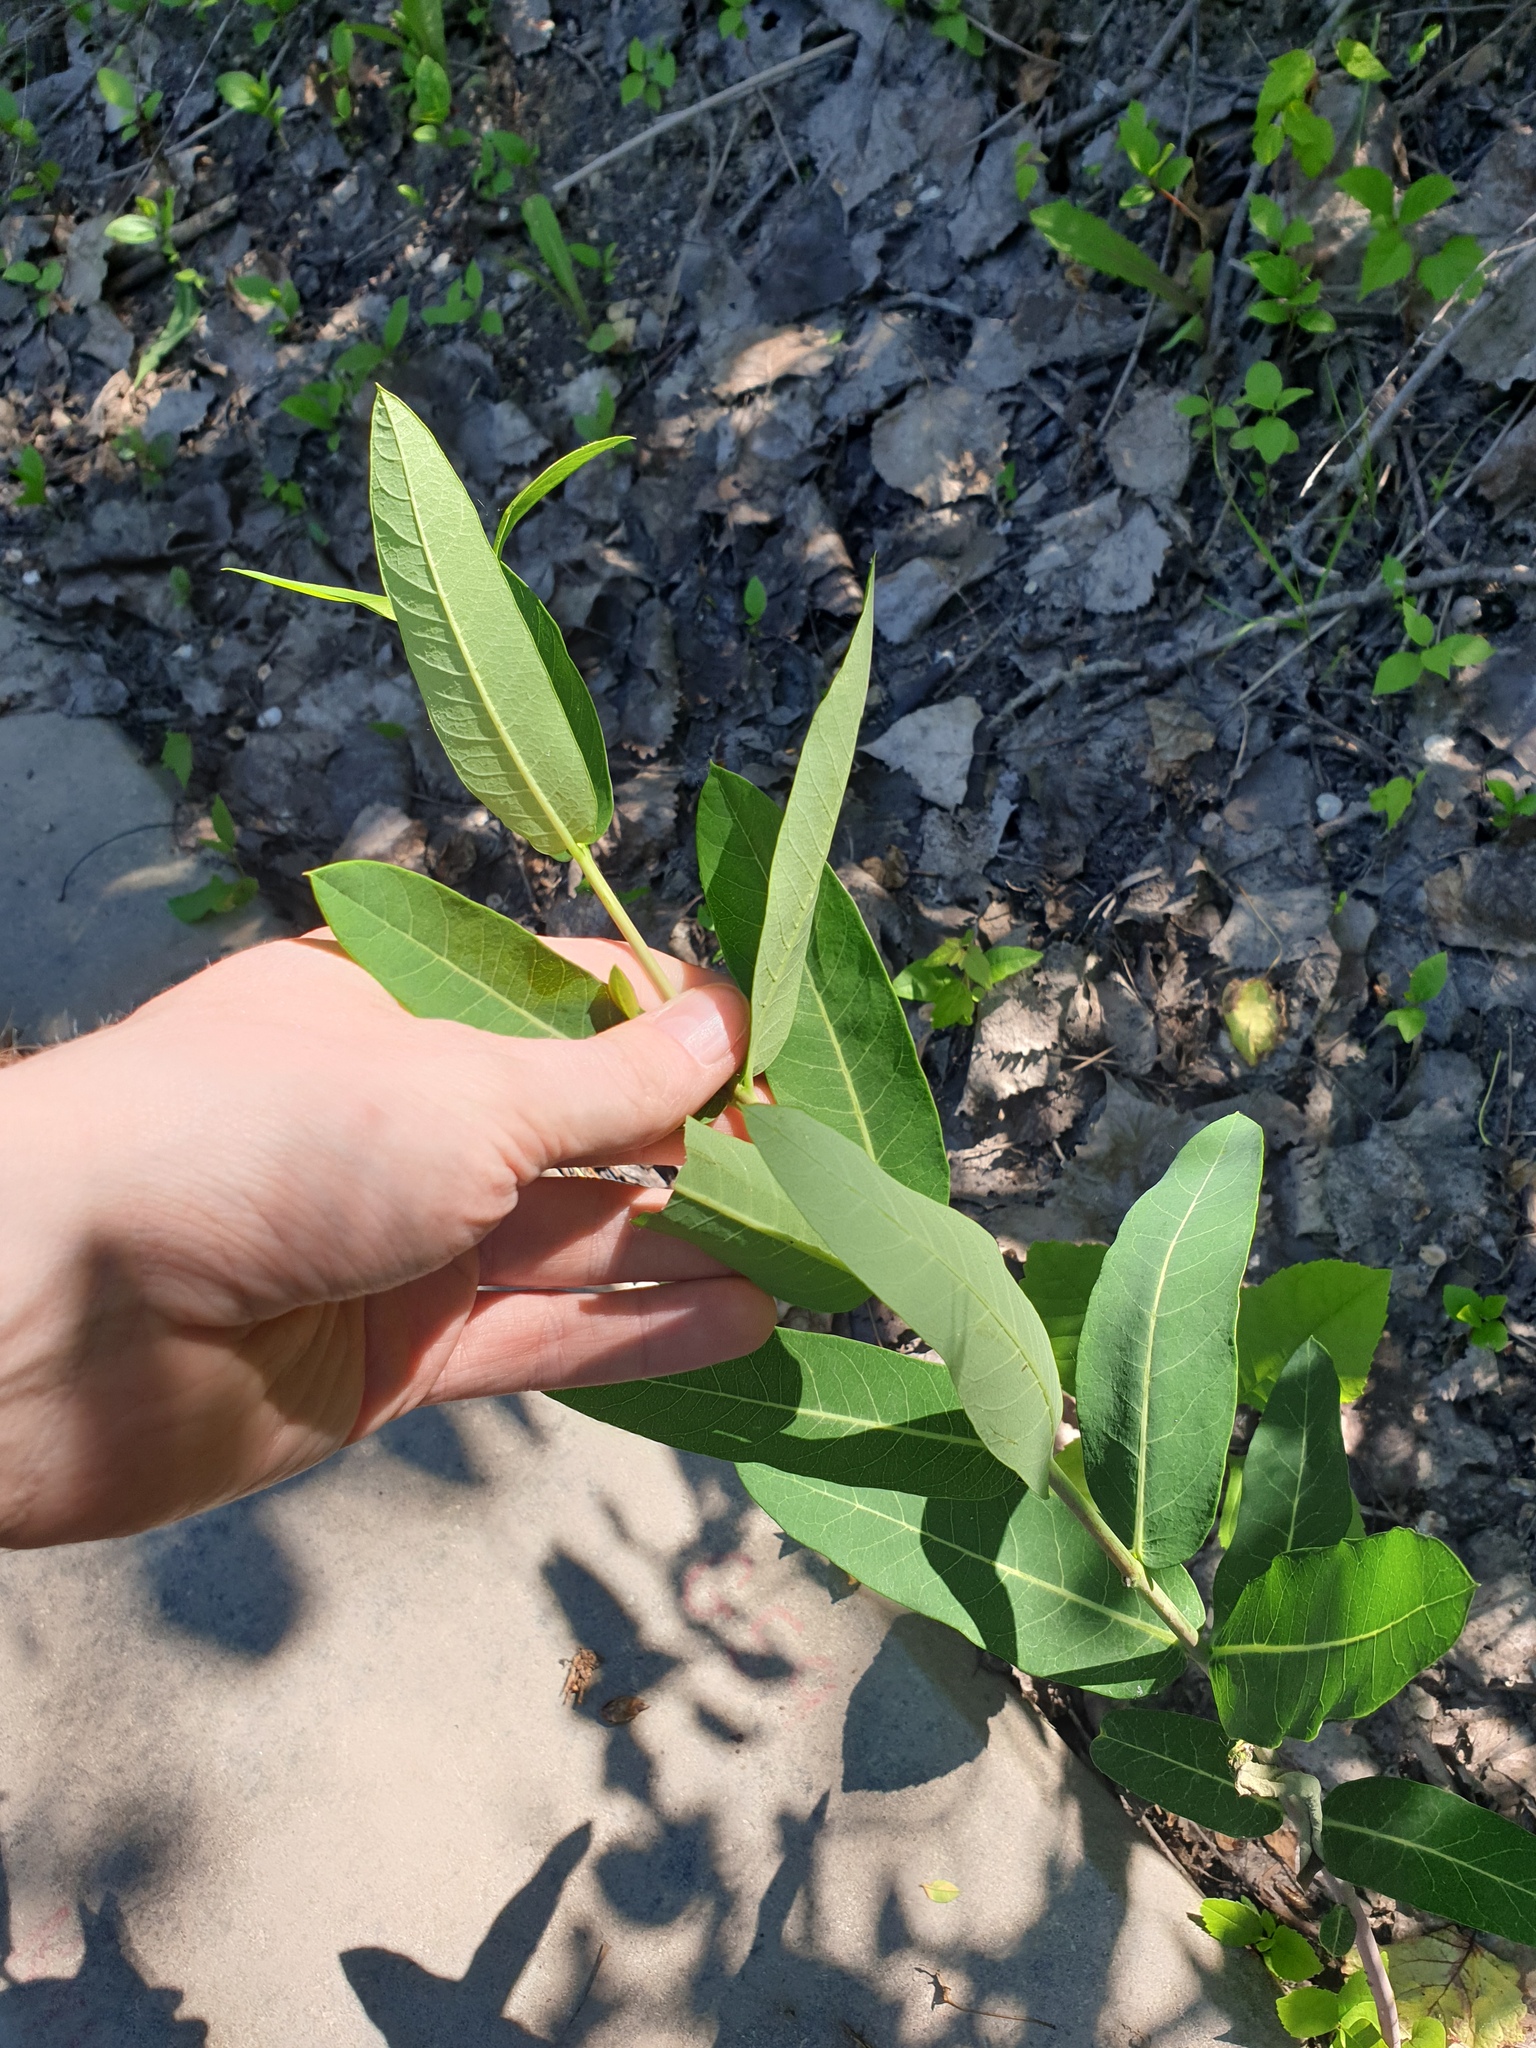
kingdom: Plantae
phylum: Tracheophyta
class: Magnoliopsida
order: Gentianales
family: Apocynaceae
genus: Apocynum
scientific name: Apocynum cannabinum
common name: Hemp dogbane
